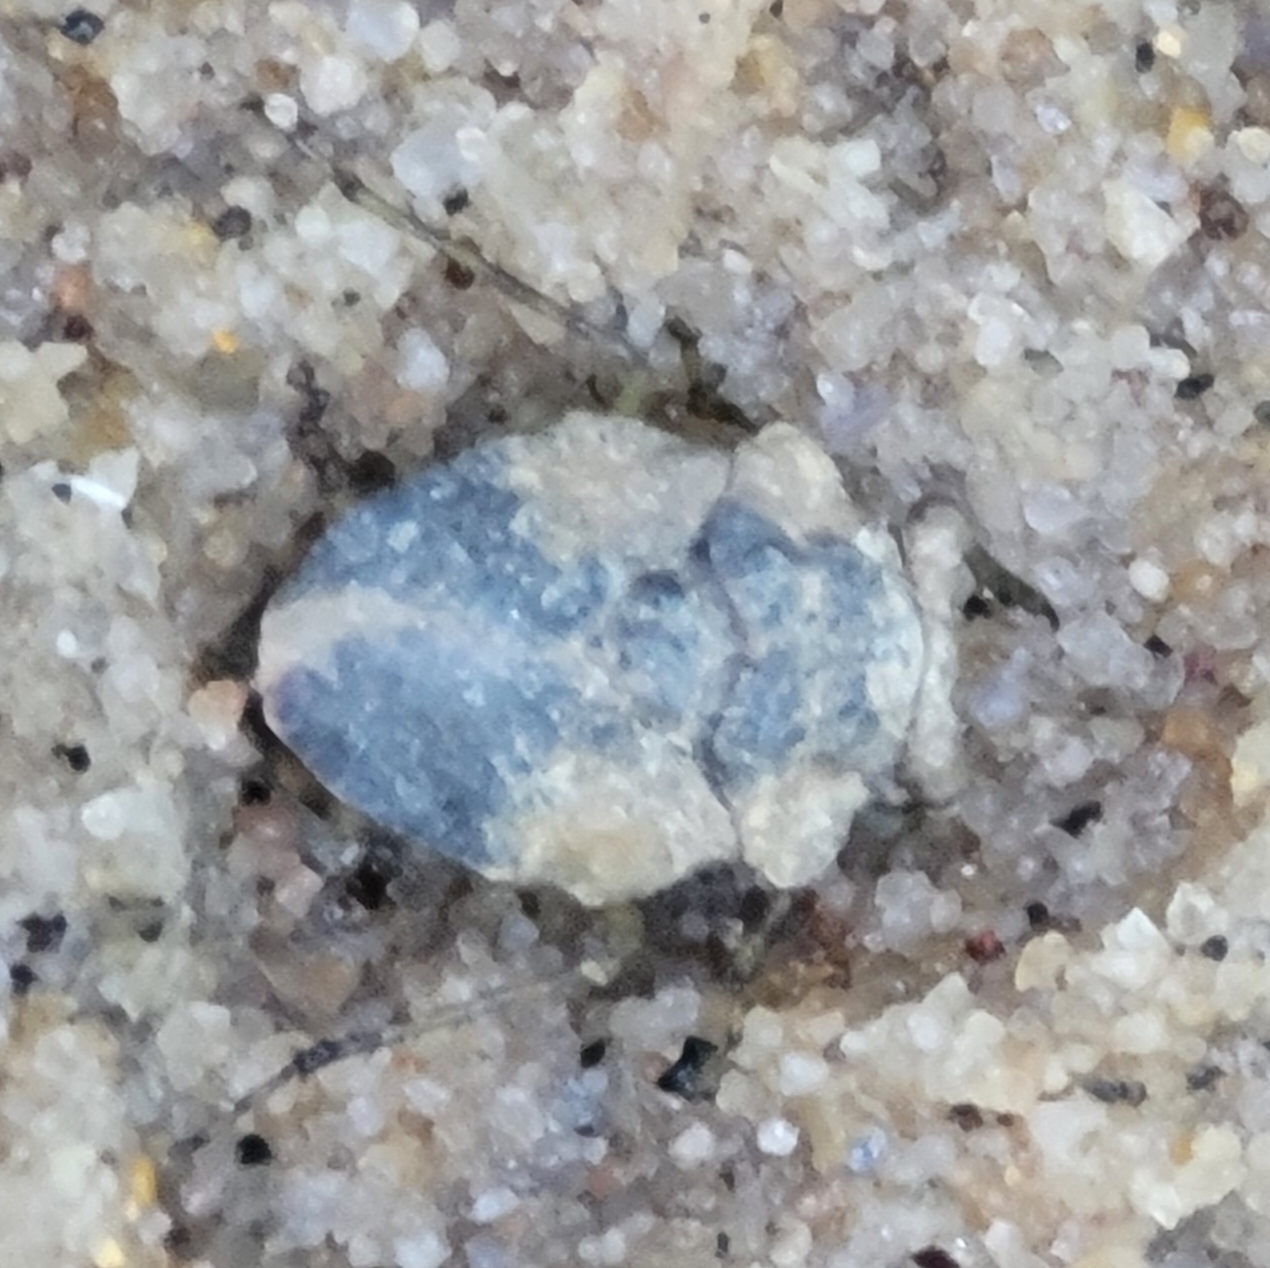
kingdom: Animalia
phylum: Arthropoda
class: Insecta
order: Hemiptera
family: Gelastocoridae
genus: Gelastocoris
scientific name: Gelastocoris oculatus
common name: Toad bug
